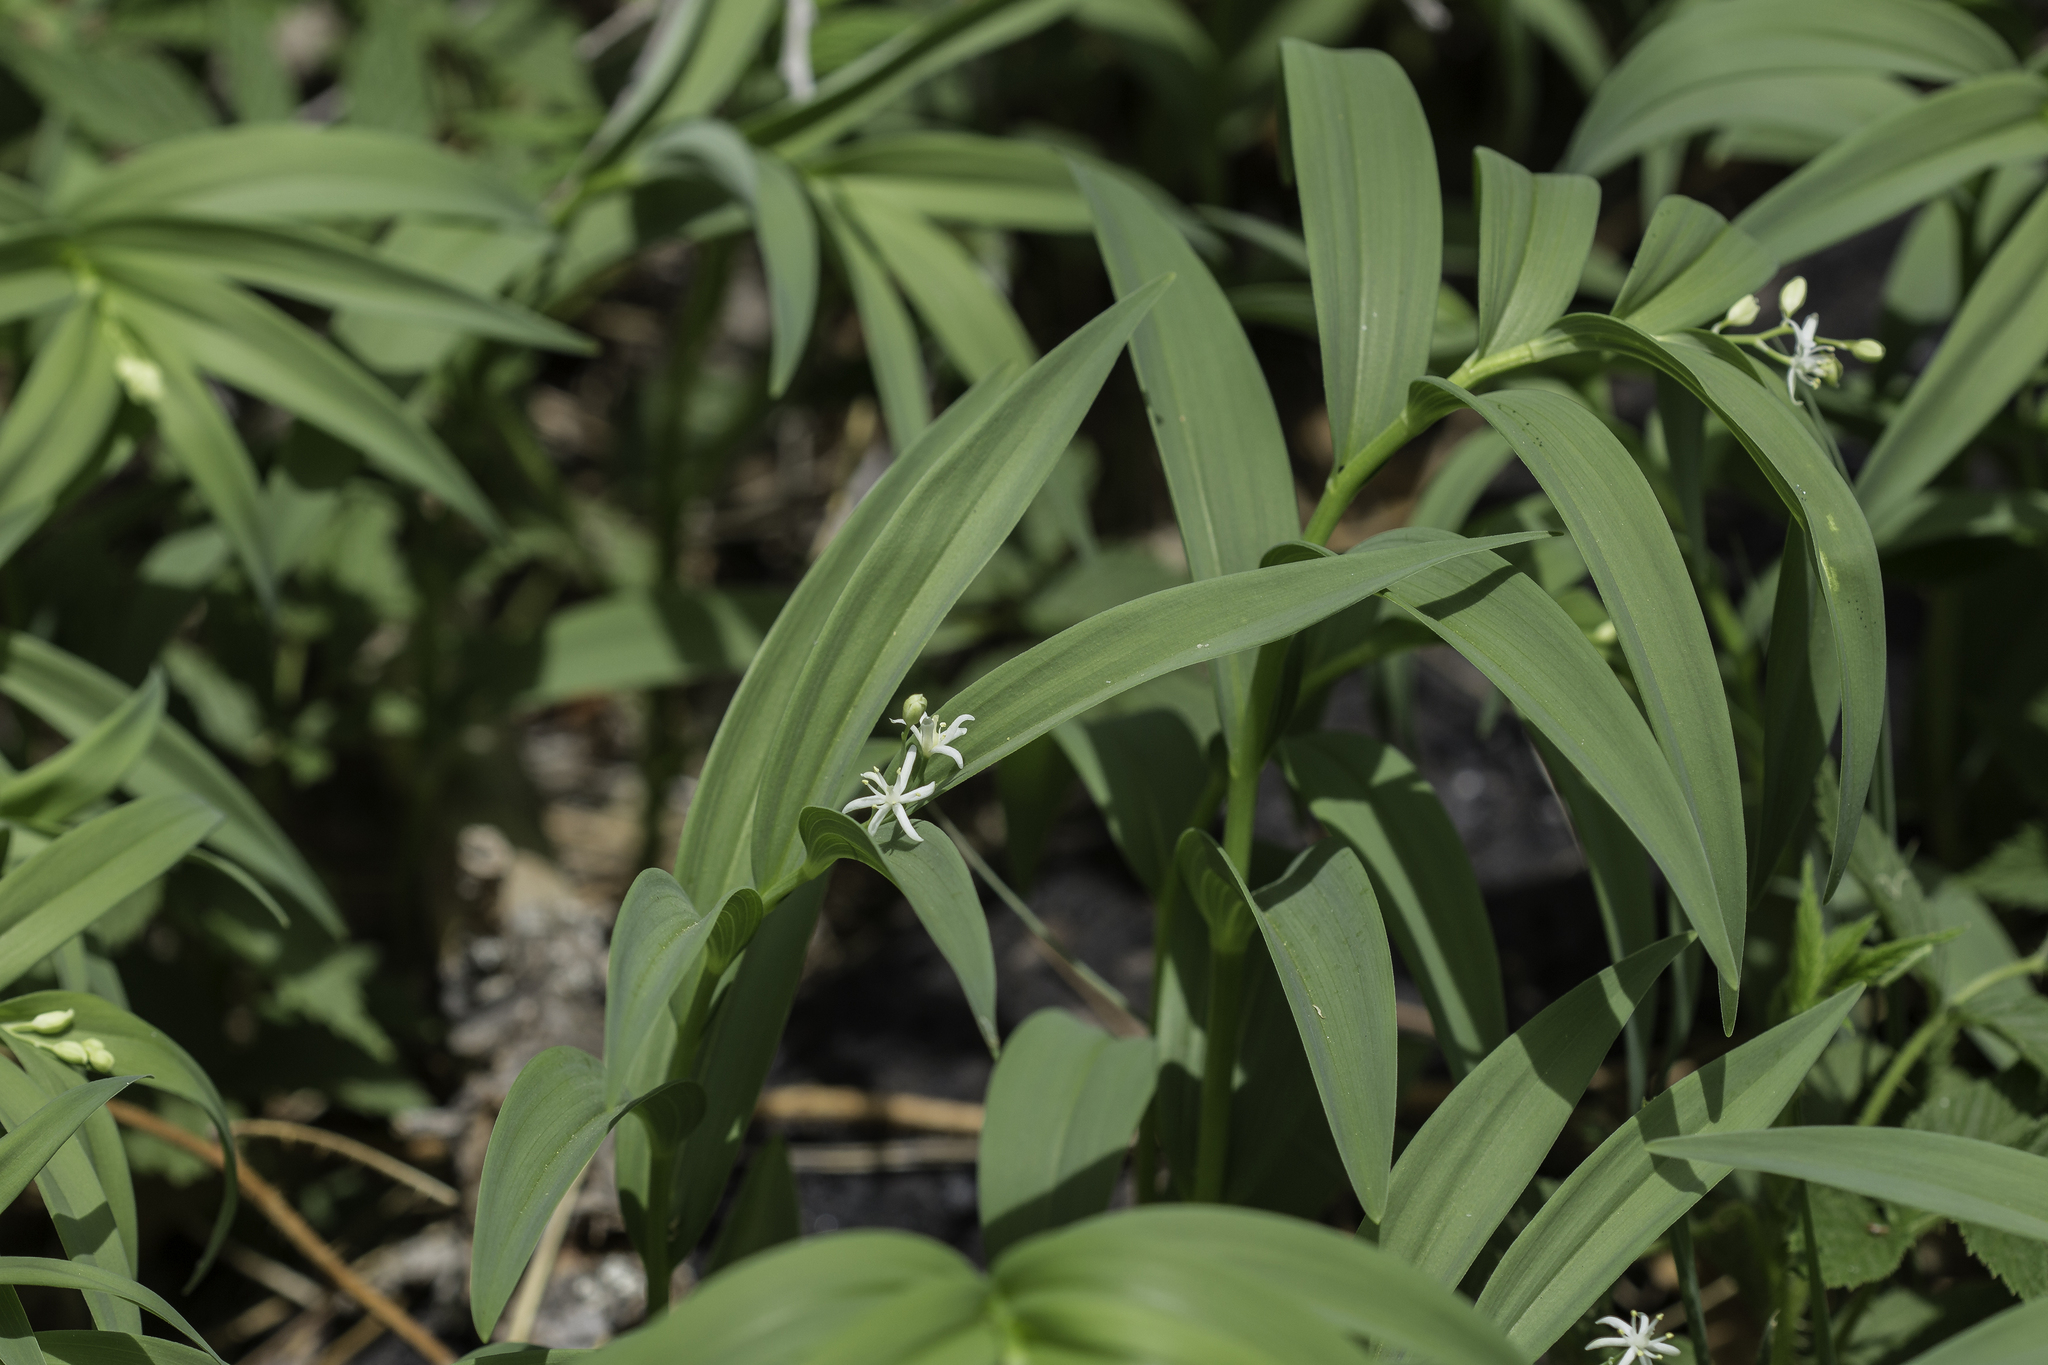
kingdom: Plantae
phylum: Tracheophyta
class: Liliopsida
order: Asparagales
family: Asparagaceae
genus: Maianthemum
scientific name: Maianthemum stellatum
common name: Little false solomon's seal
